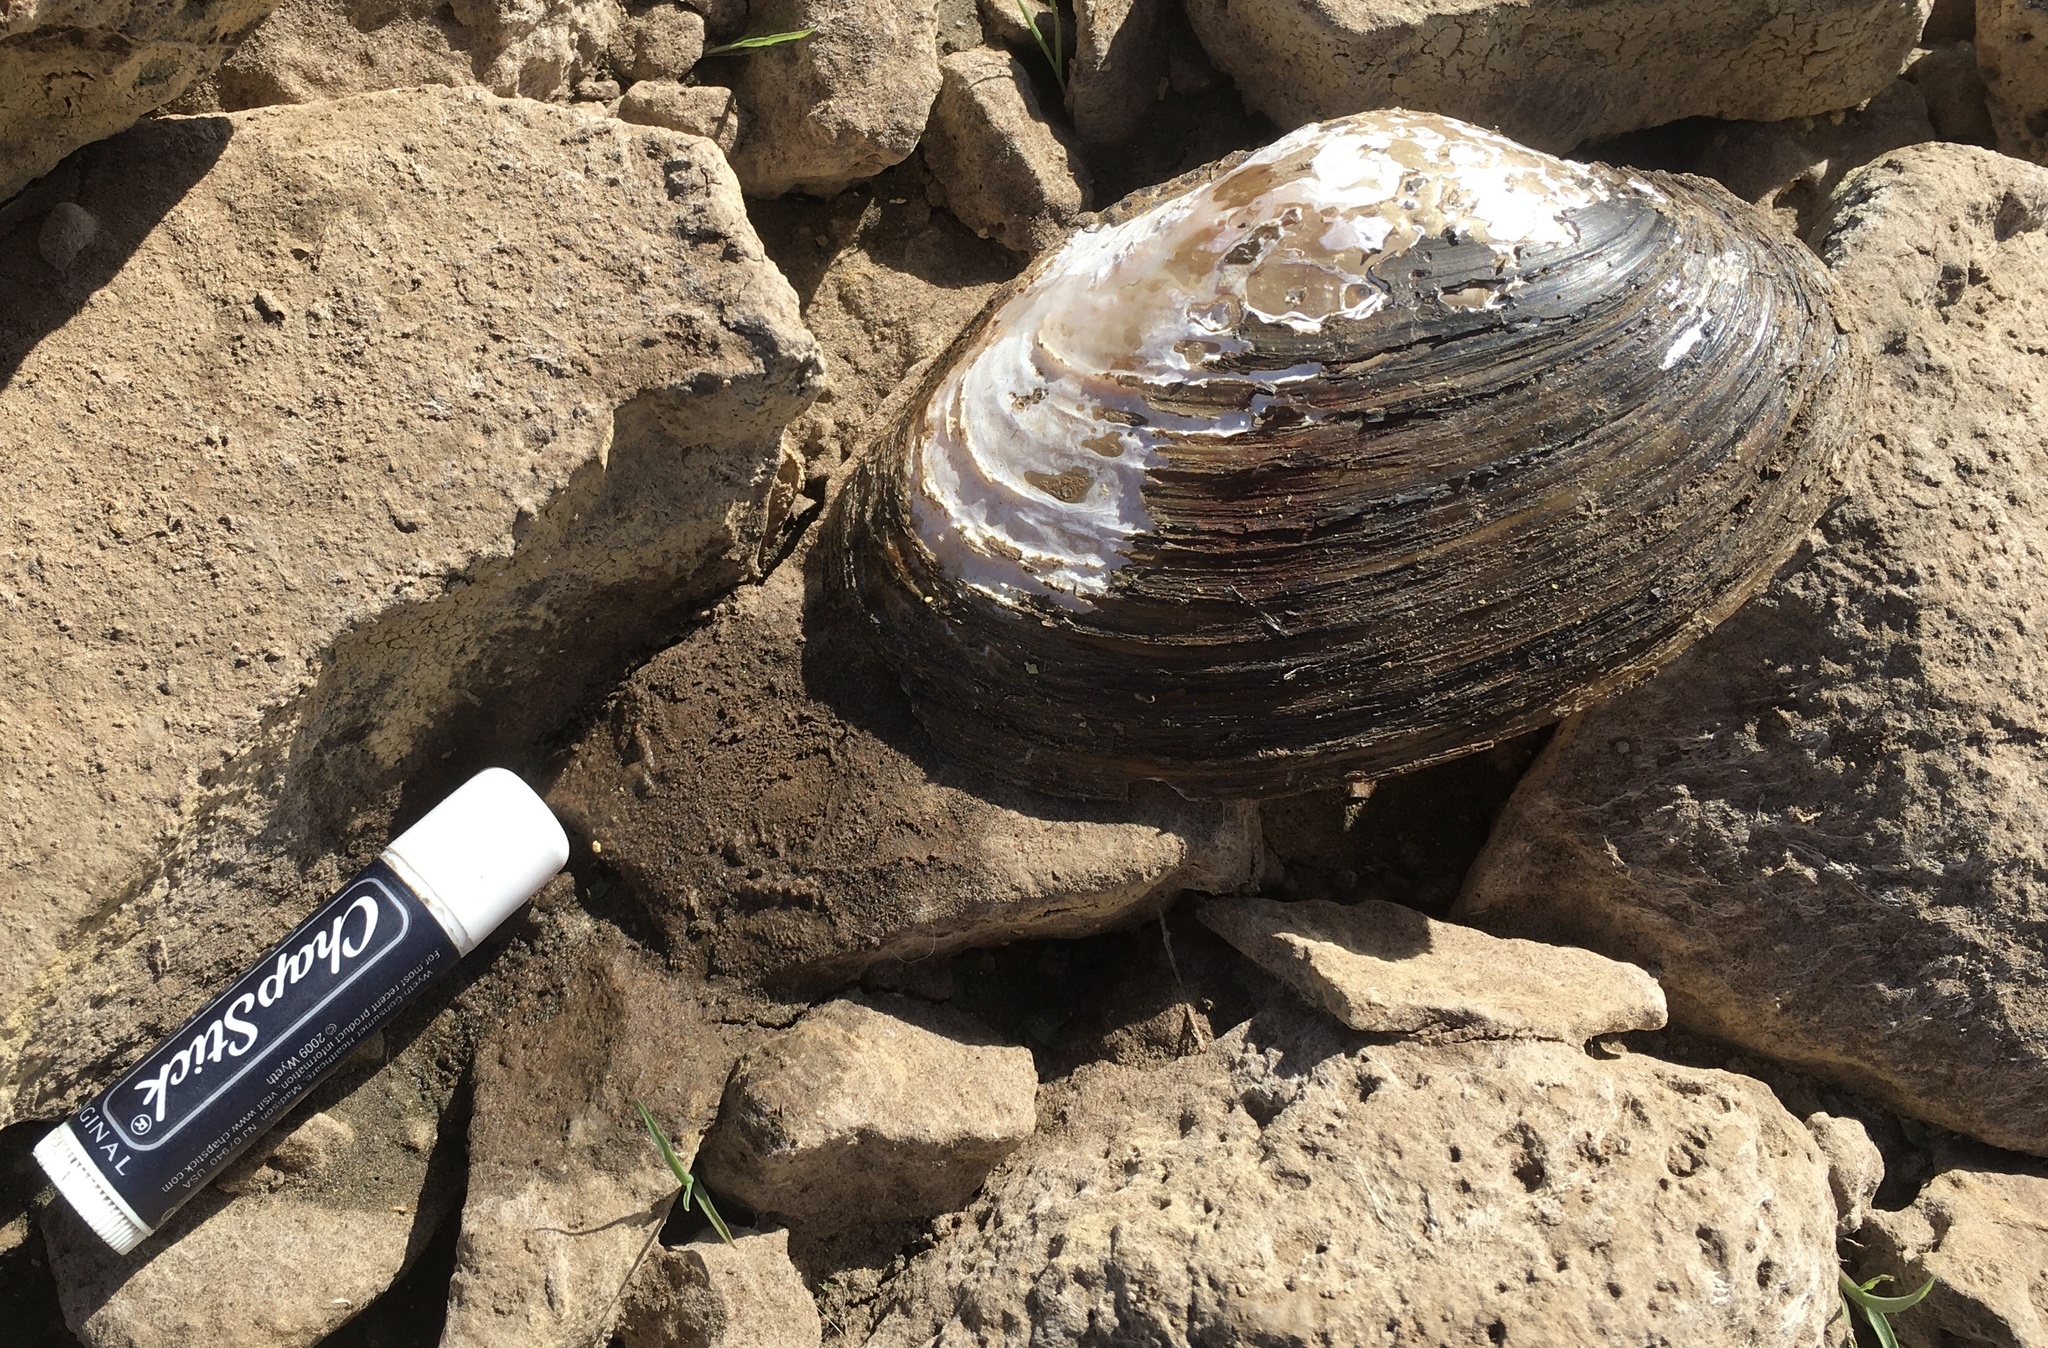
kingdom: Animalia
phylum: Mollusca
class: Bivalvia
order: Unionida
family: Unionidae
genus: Pyganodon
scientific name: Pyganodon grandis
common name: Giant floater
